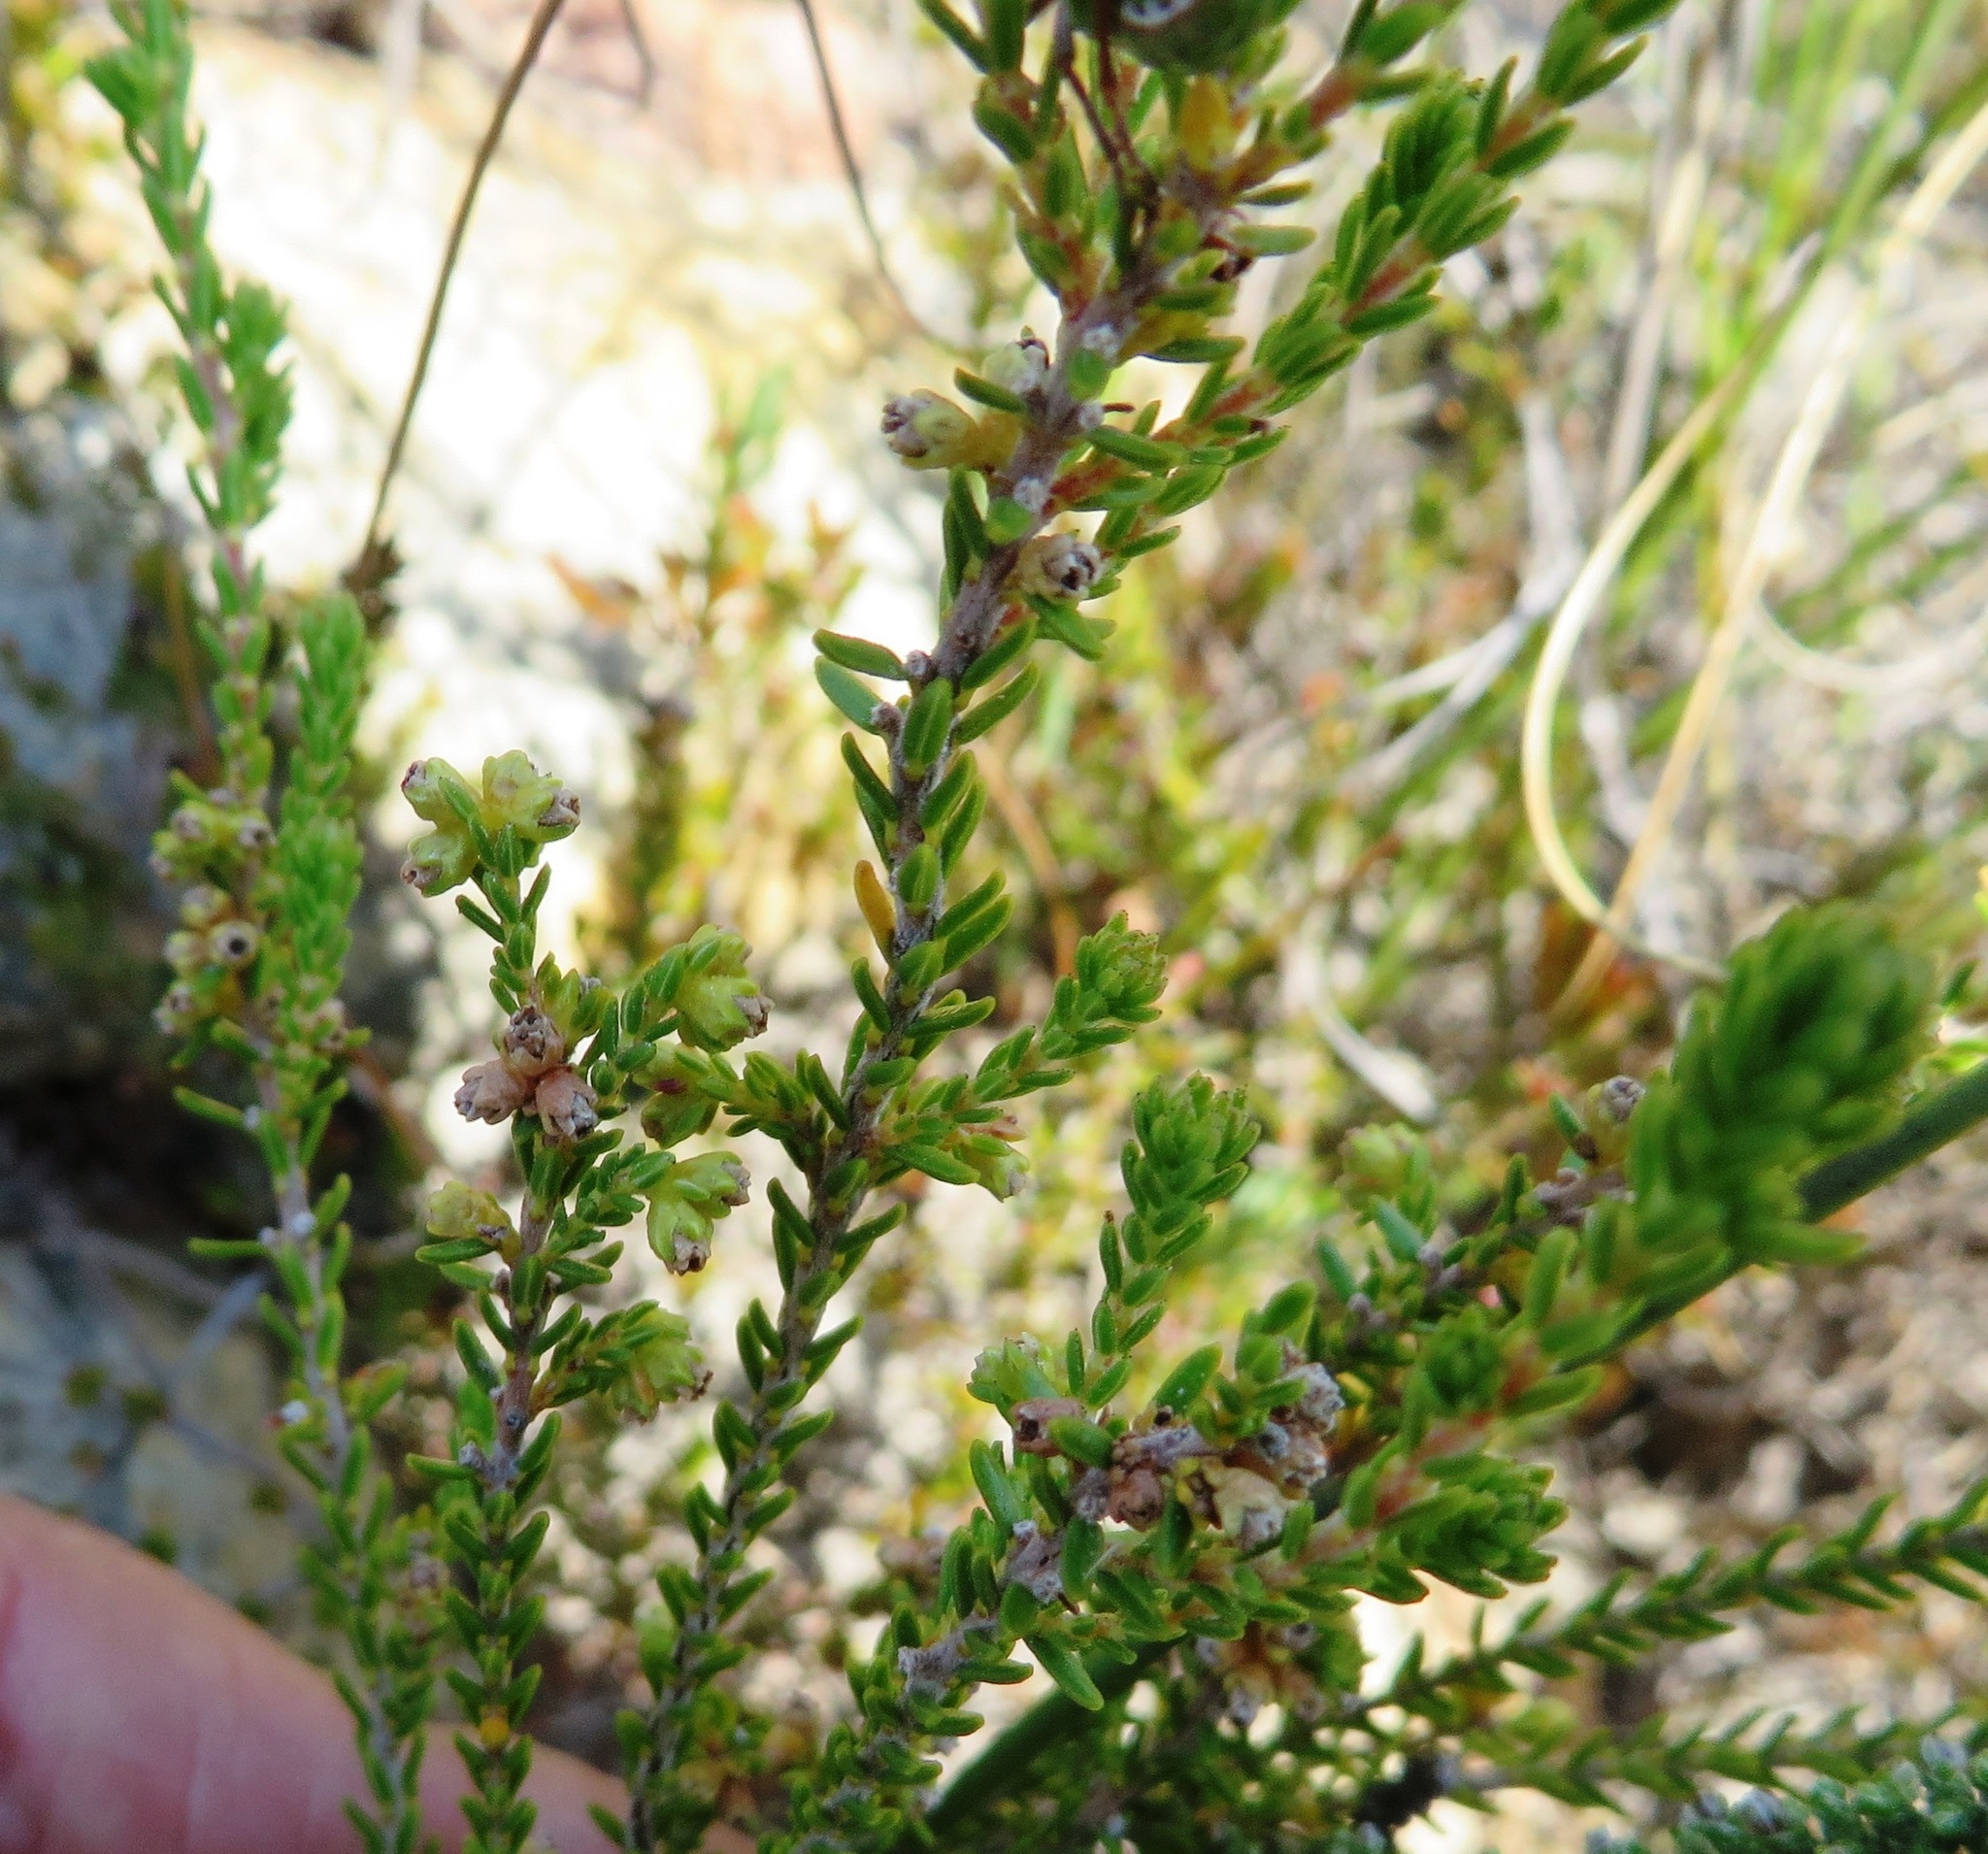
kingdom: Plantae
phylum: Tracheophyta
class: Magnoliopsida
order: Ericales
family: Ericaceae
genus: Erica
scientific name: Erica serrata
